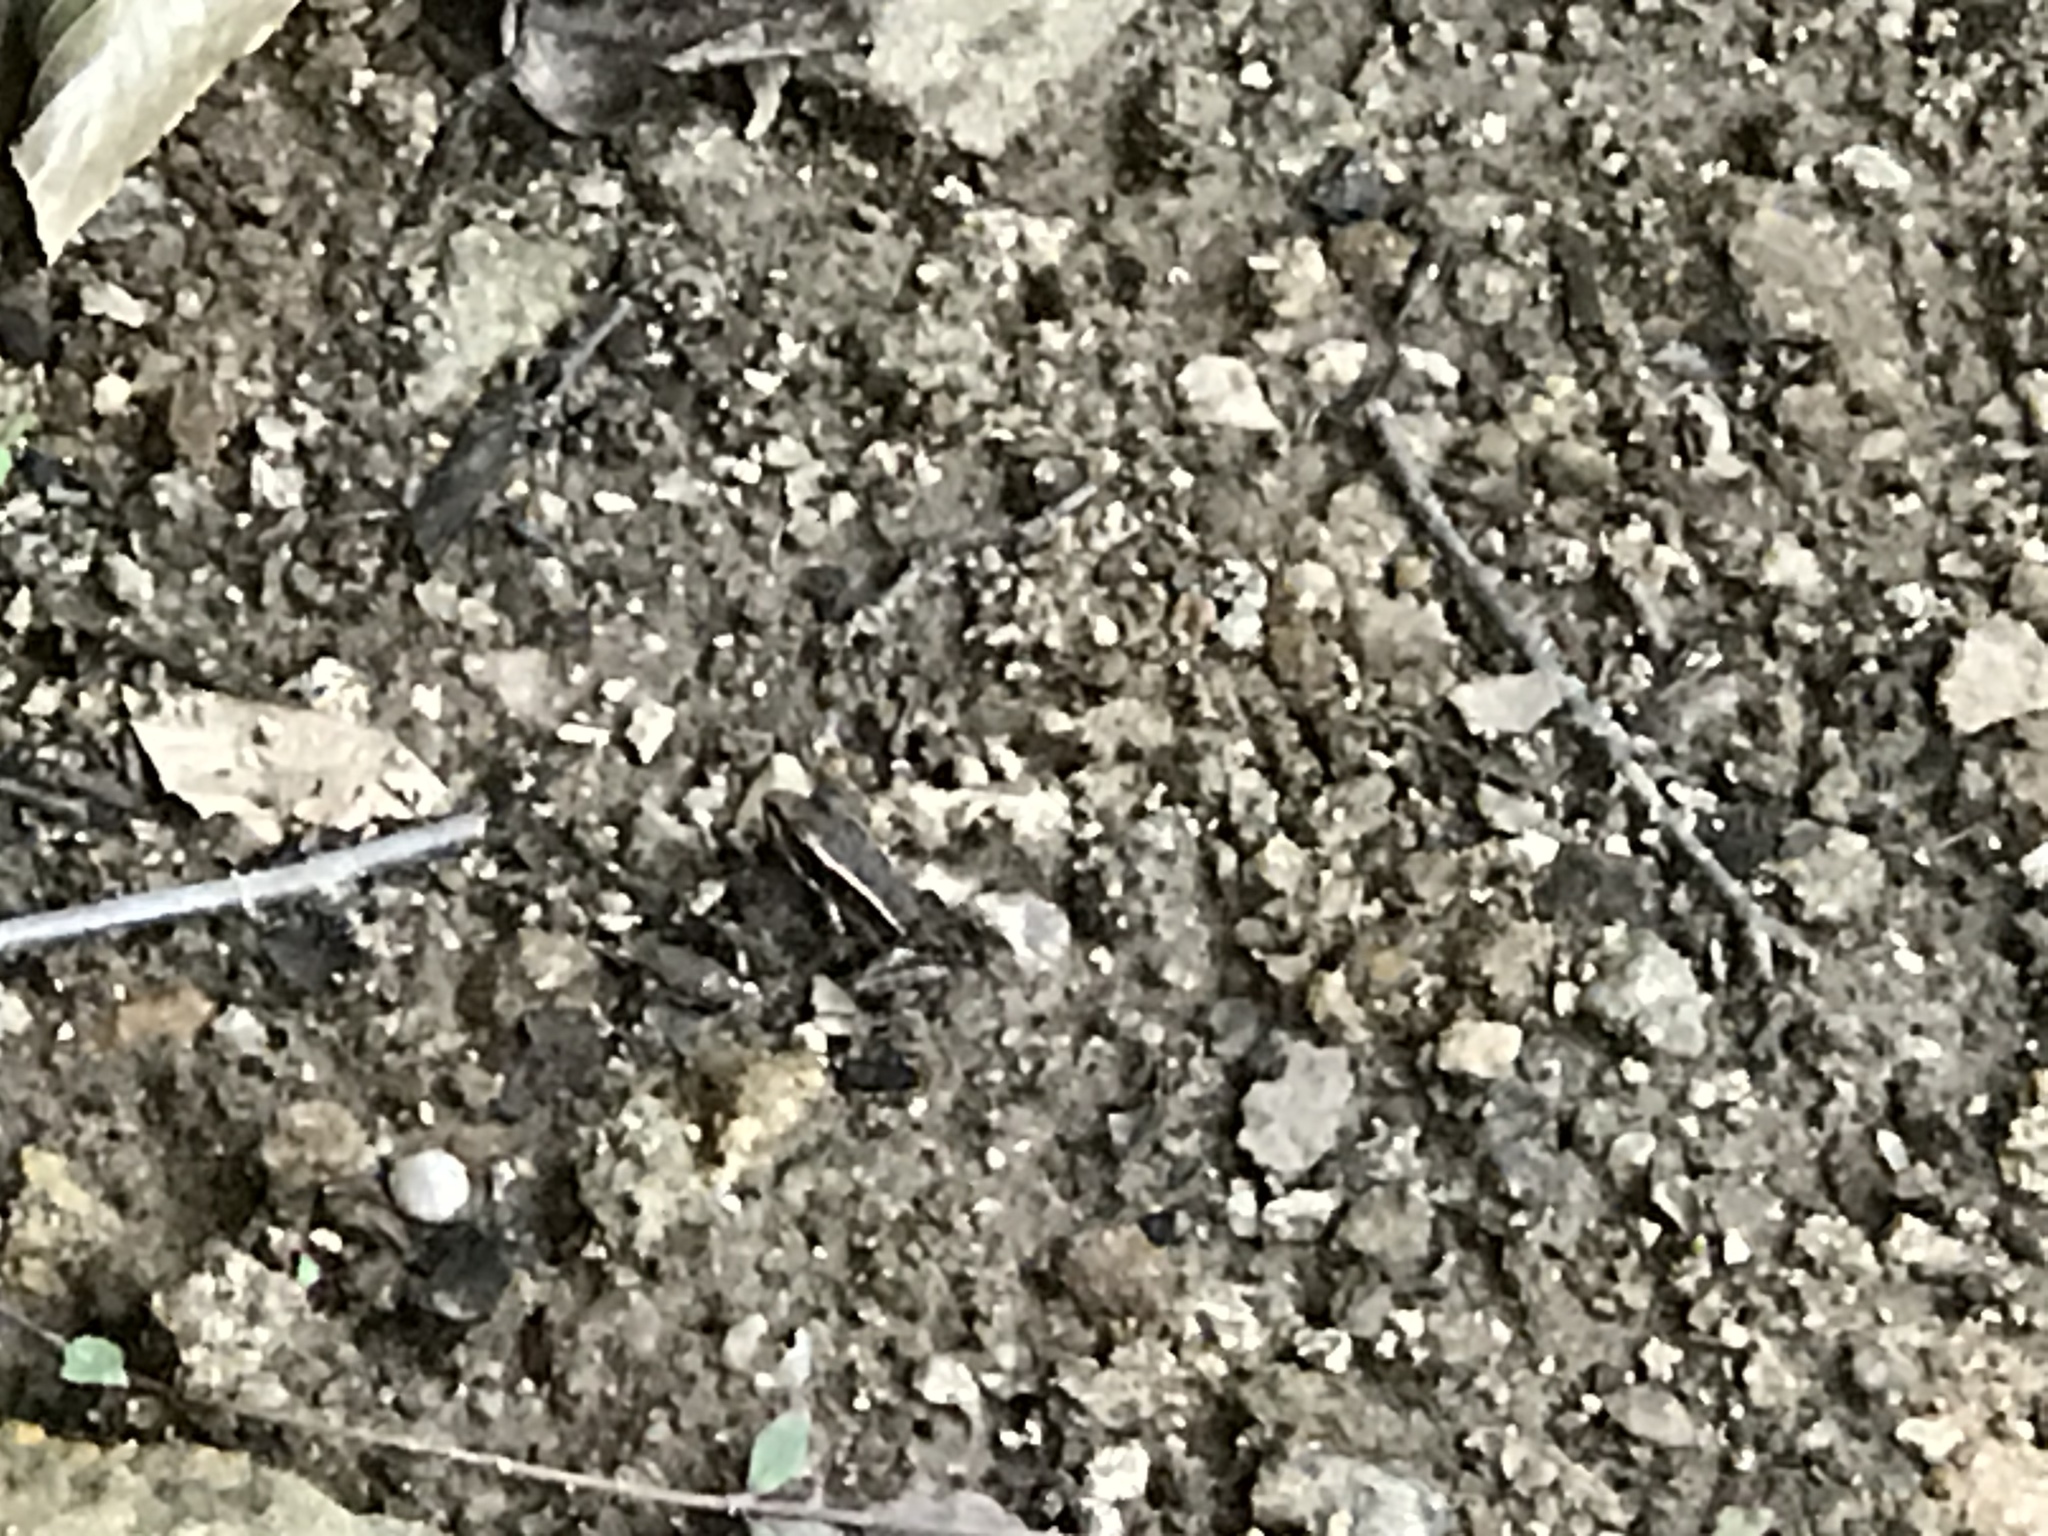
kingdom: Animalia
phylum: Chordata
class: Amphibia
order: Anura
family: Ranidae
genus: Lithobates
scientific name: Lithobates palustris
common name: Pickerel frog
